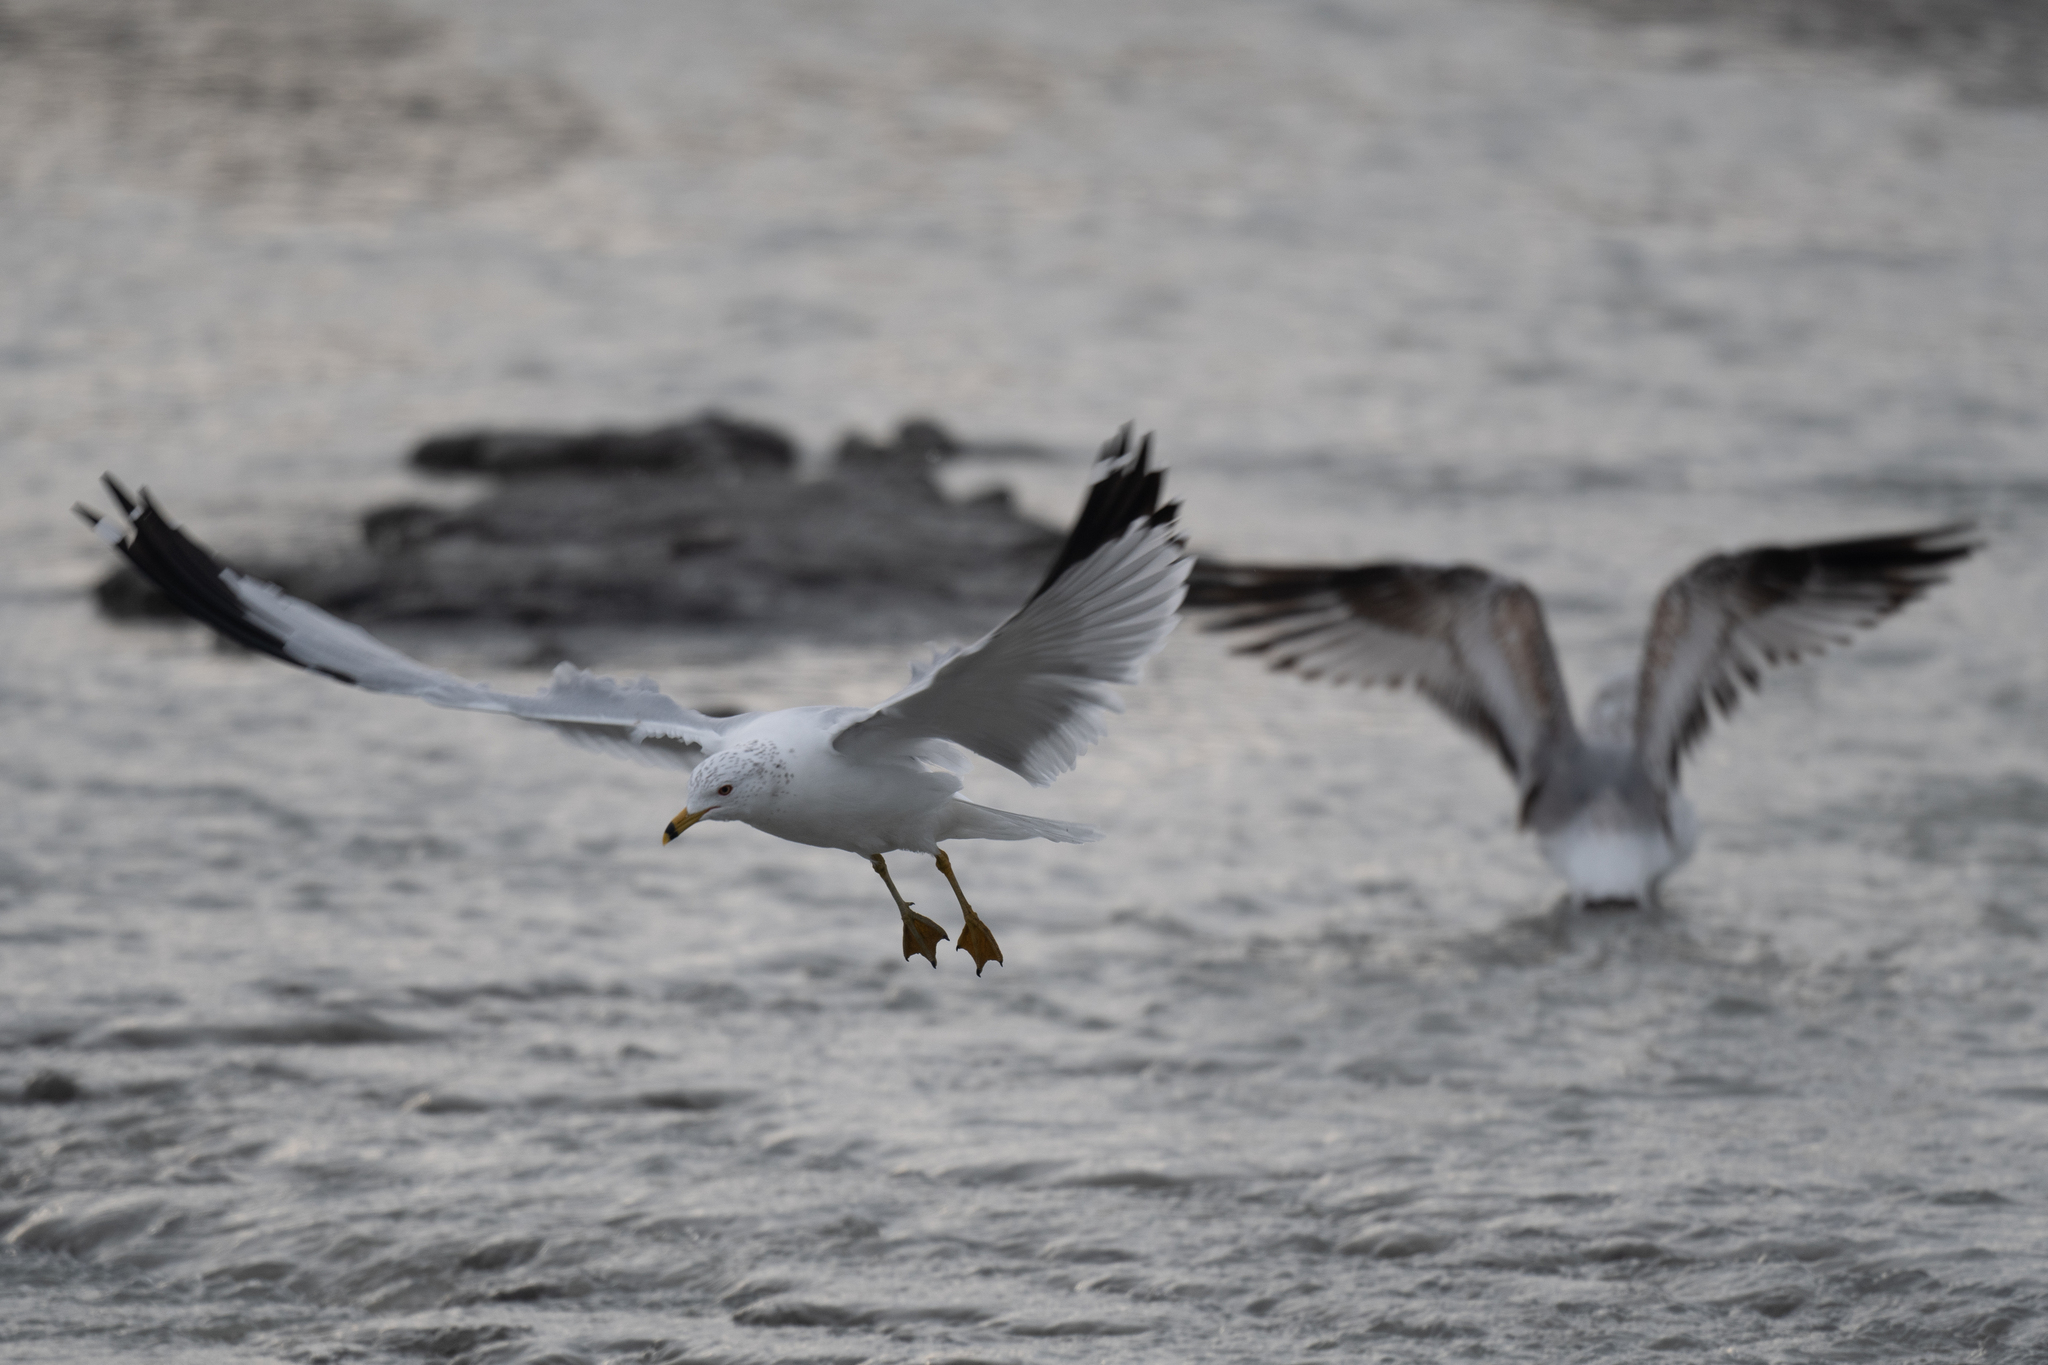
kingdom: Animalia
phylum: Chordata
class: Aves
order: Charadriiformes
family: Laridae
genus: Larus
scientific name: Larus delawarensis
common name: Ring-billed gull
